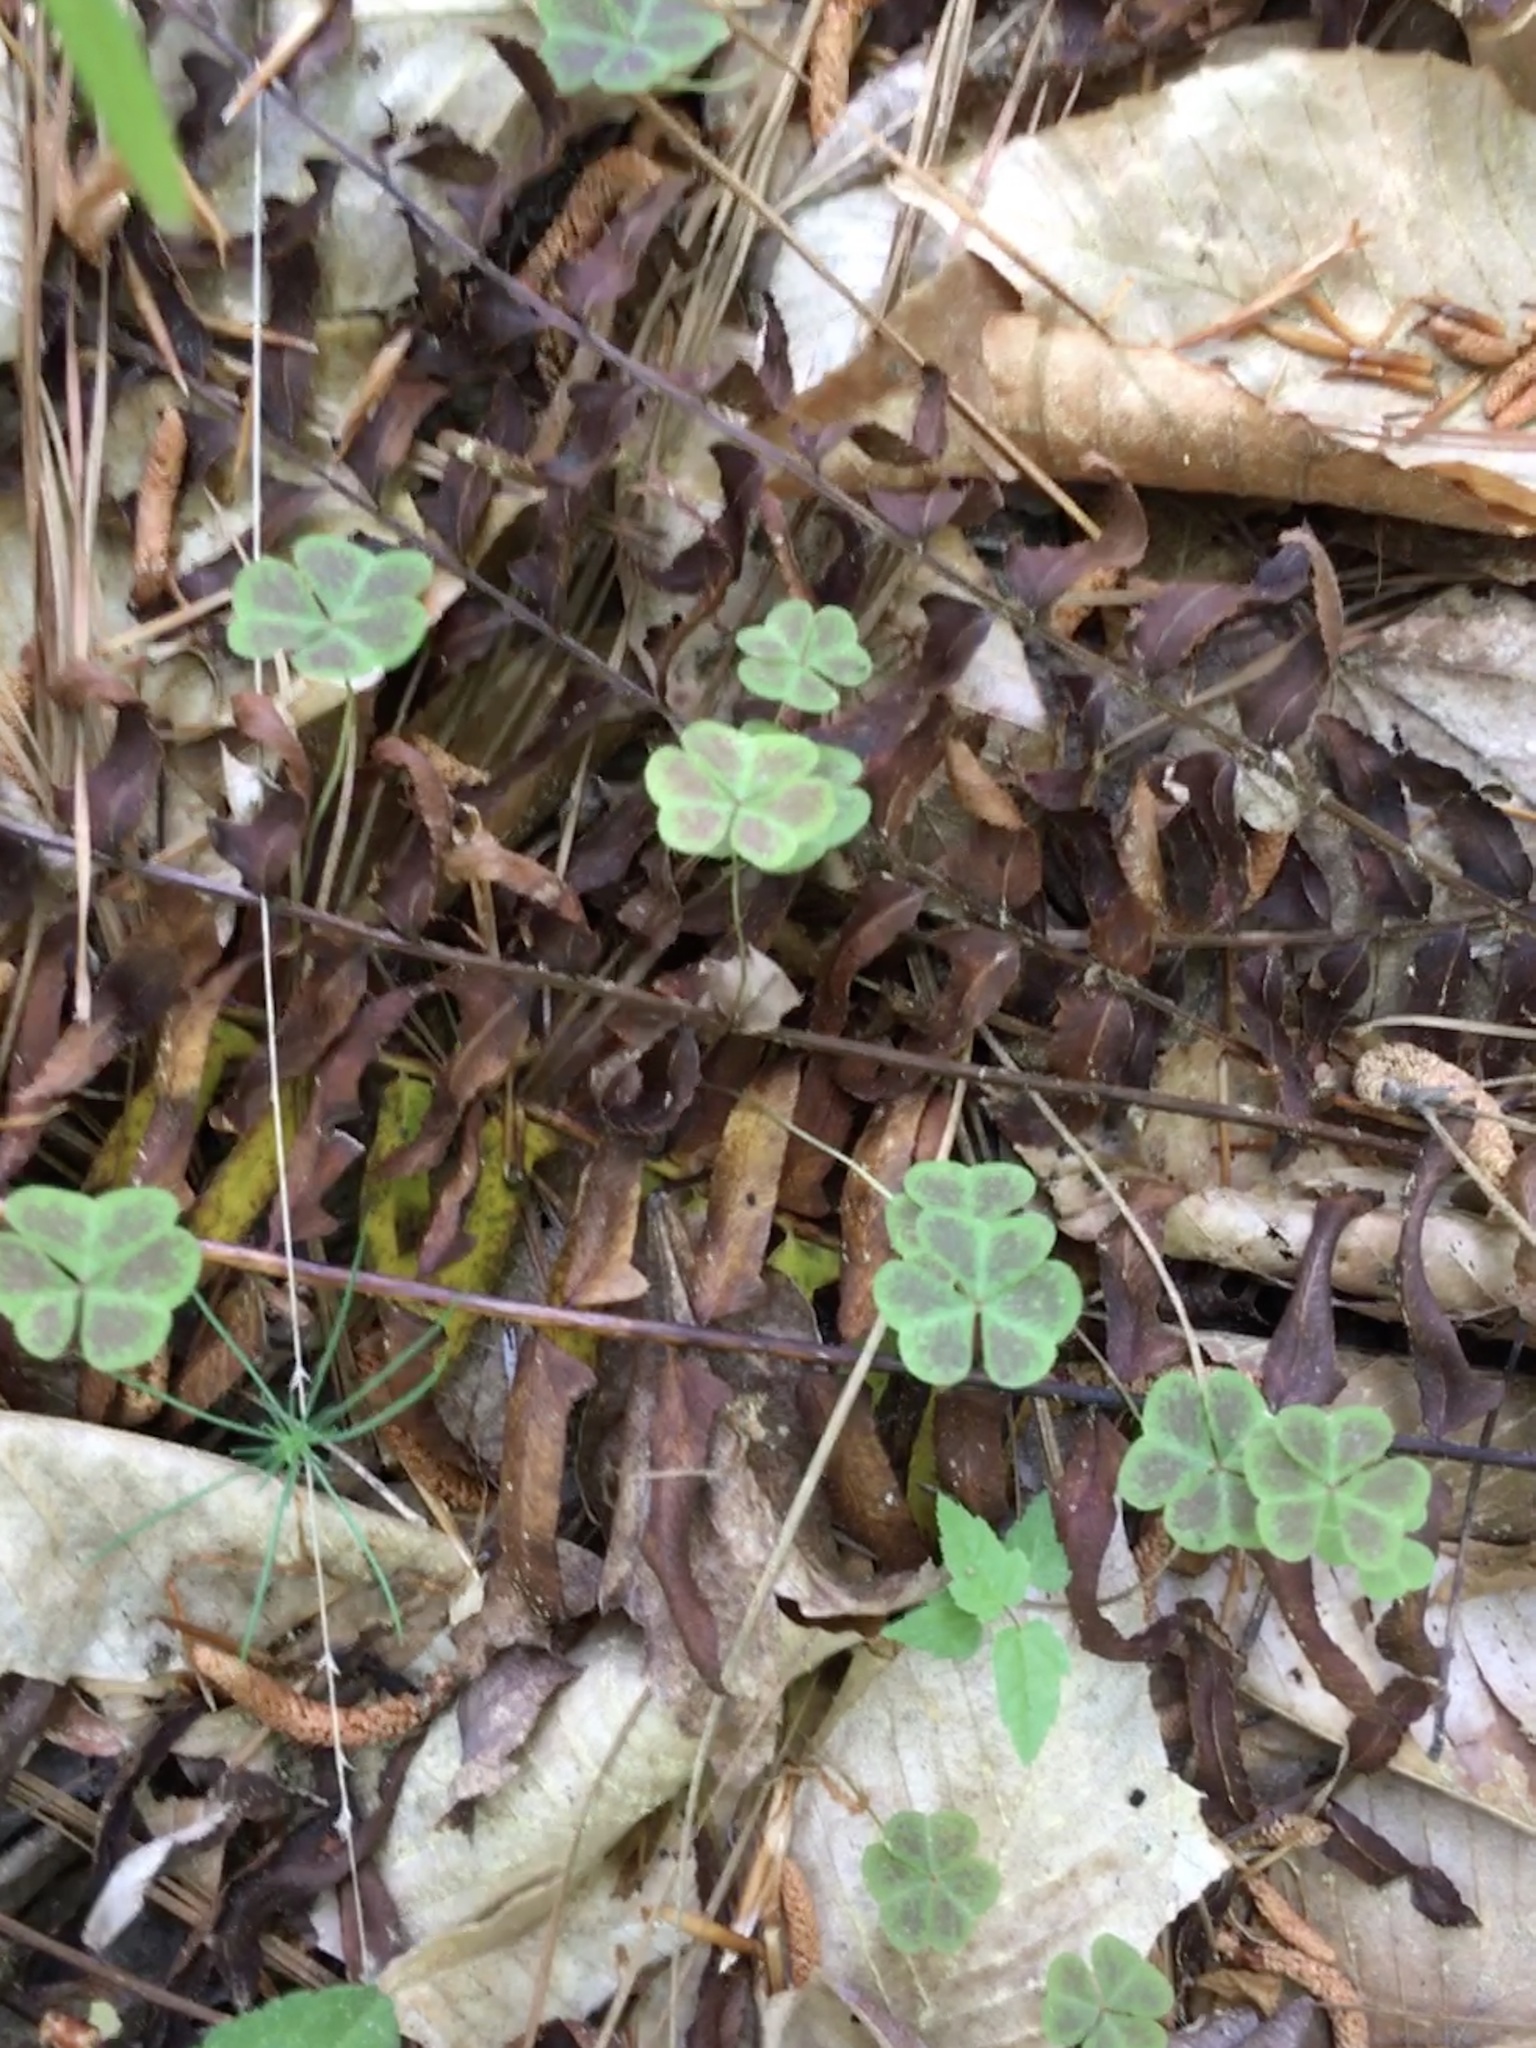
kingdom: Plantae
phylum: Tracheophyta
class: Magnoliopsida
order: Oxalidales
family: Oxalidaceae
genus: Oxalis
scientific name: Oxalis violacea
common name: Violet wood-sorrel
